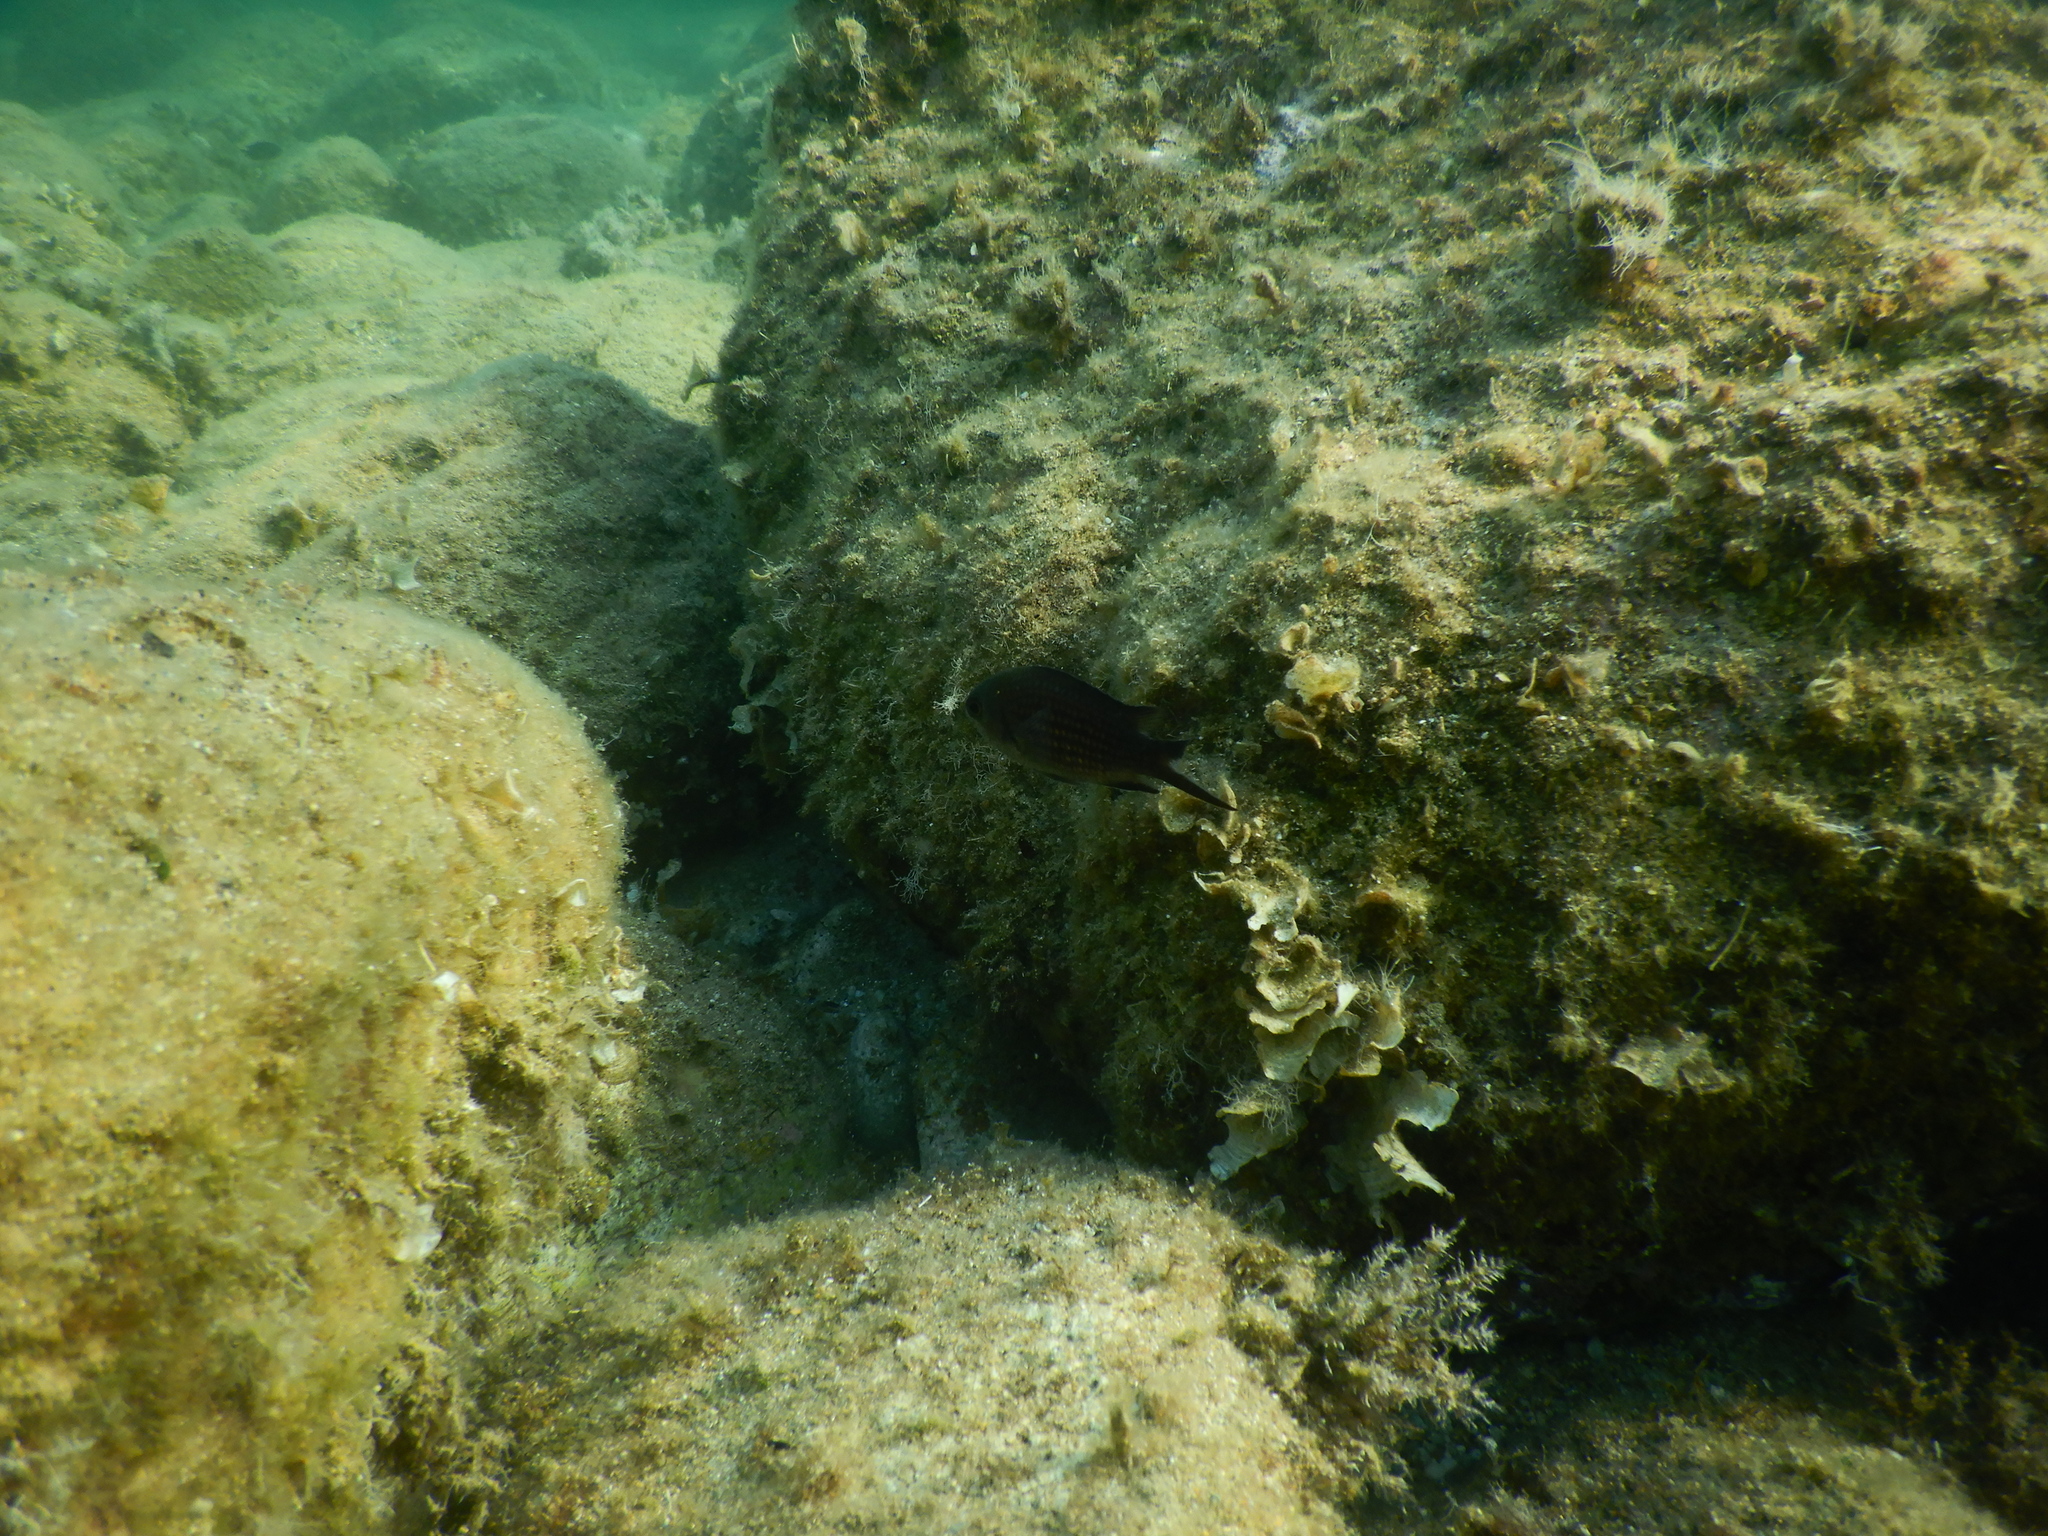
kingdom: Animalia
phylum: Chordata
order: Perciformes
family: Pomacentridae
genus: Chromis
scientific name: Chromis chromis
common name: Damselfish
